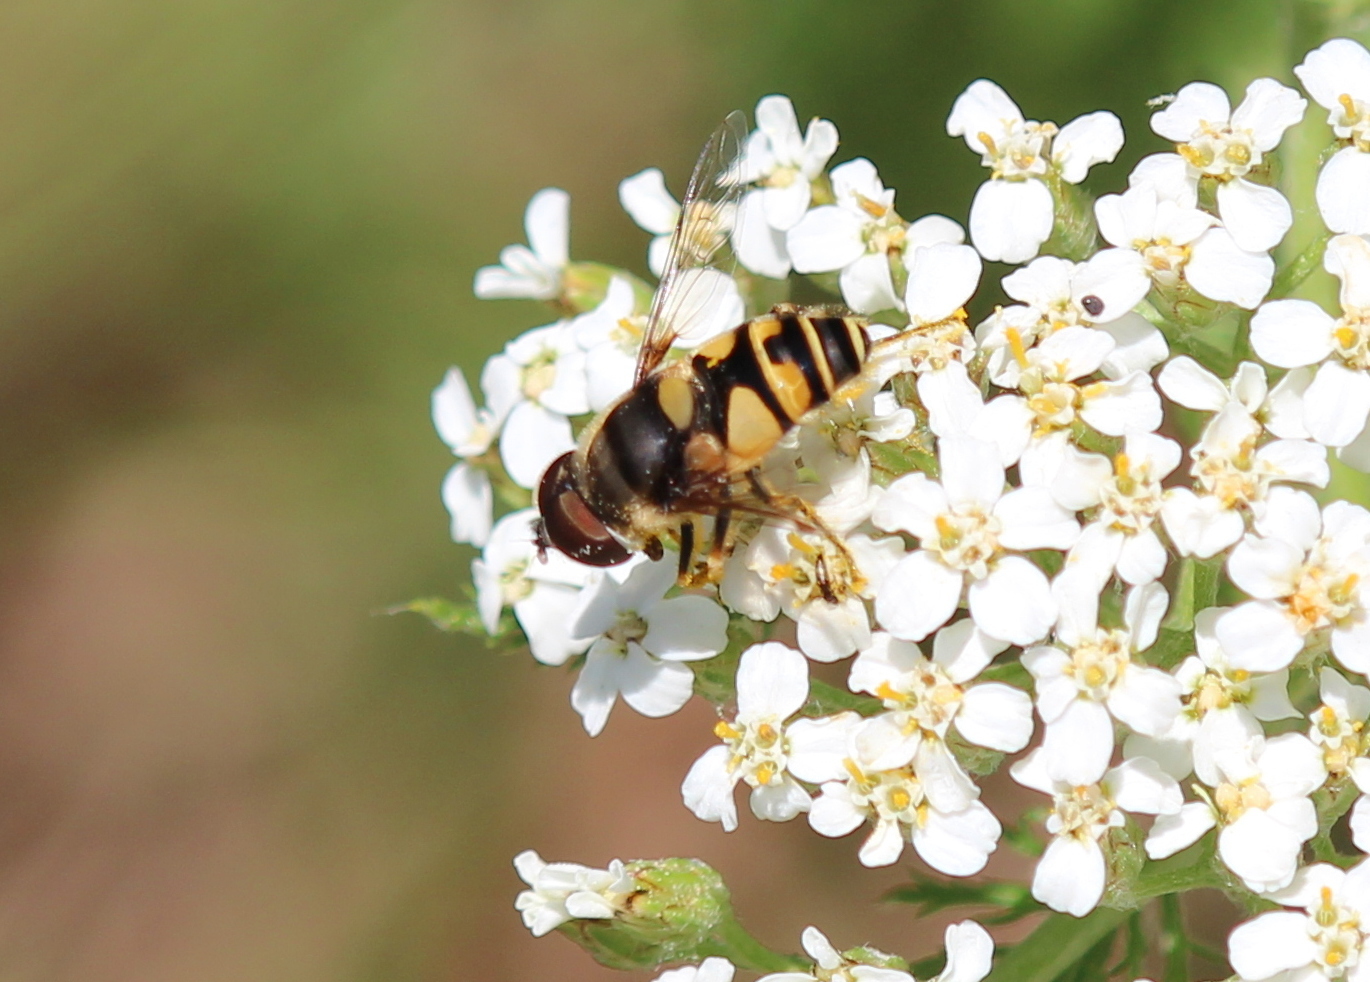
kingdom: Animalia
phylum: Arthropoda
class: Insecta
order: Diptera
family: Syrphidae
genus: Eristalis
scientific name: Eristalis transversa
